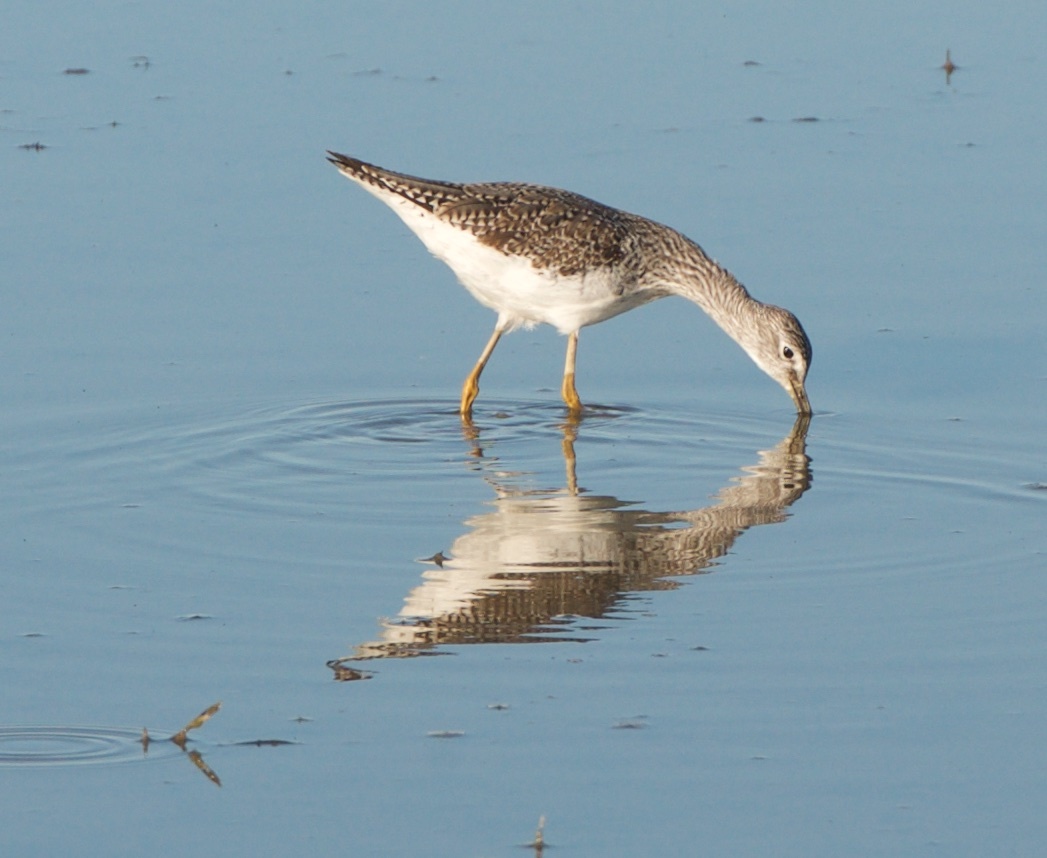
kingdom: Animalia
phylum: Chordata
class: Aves
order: Charadriiformes
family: Scolopacidae
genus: Tringa
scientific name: Tringa melanoleuca
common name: Greater yellowlegs
